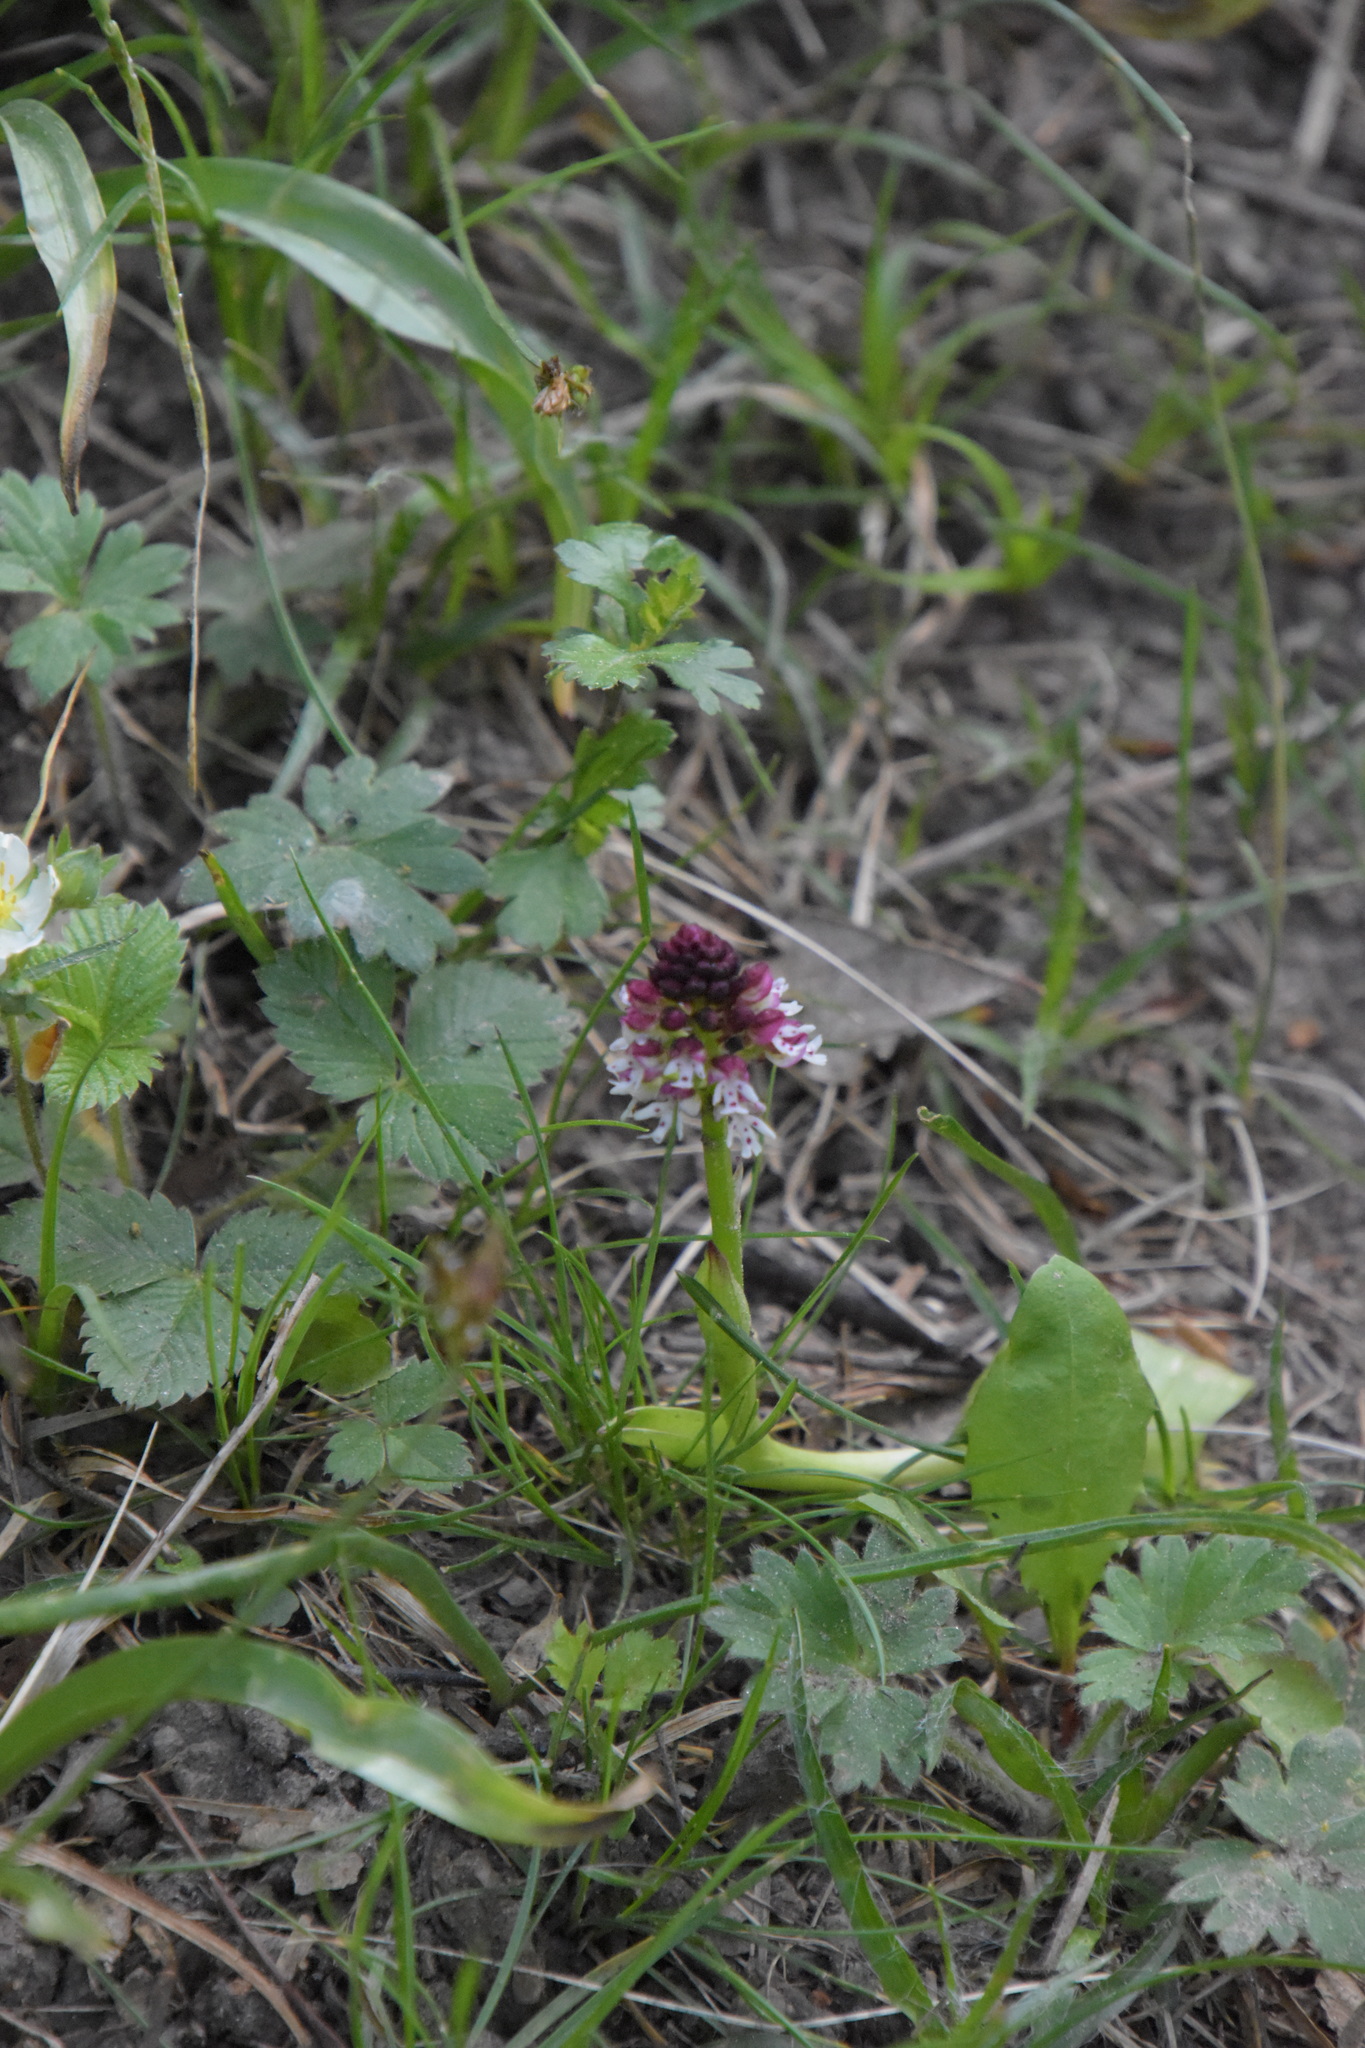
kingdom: Plantae
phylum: Tracheophyta
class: Liliopsida
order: Asparagales
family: Orchidaceae
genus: Neotinea
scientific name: Neotinea ustulata
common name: Burnt orchid
